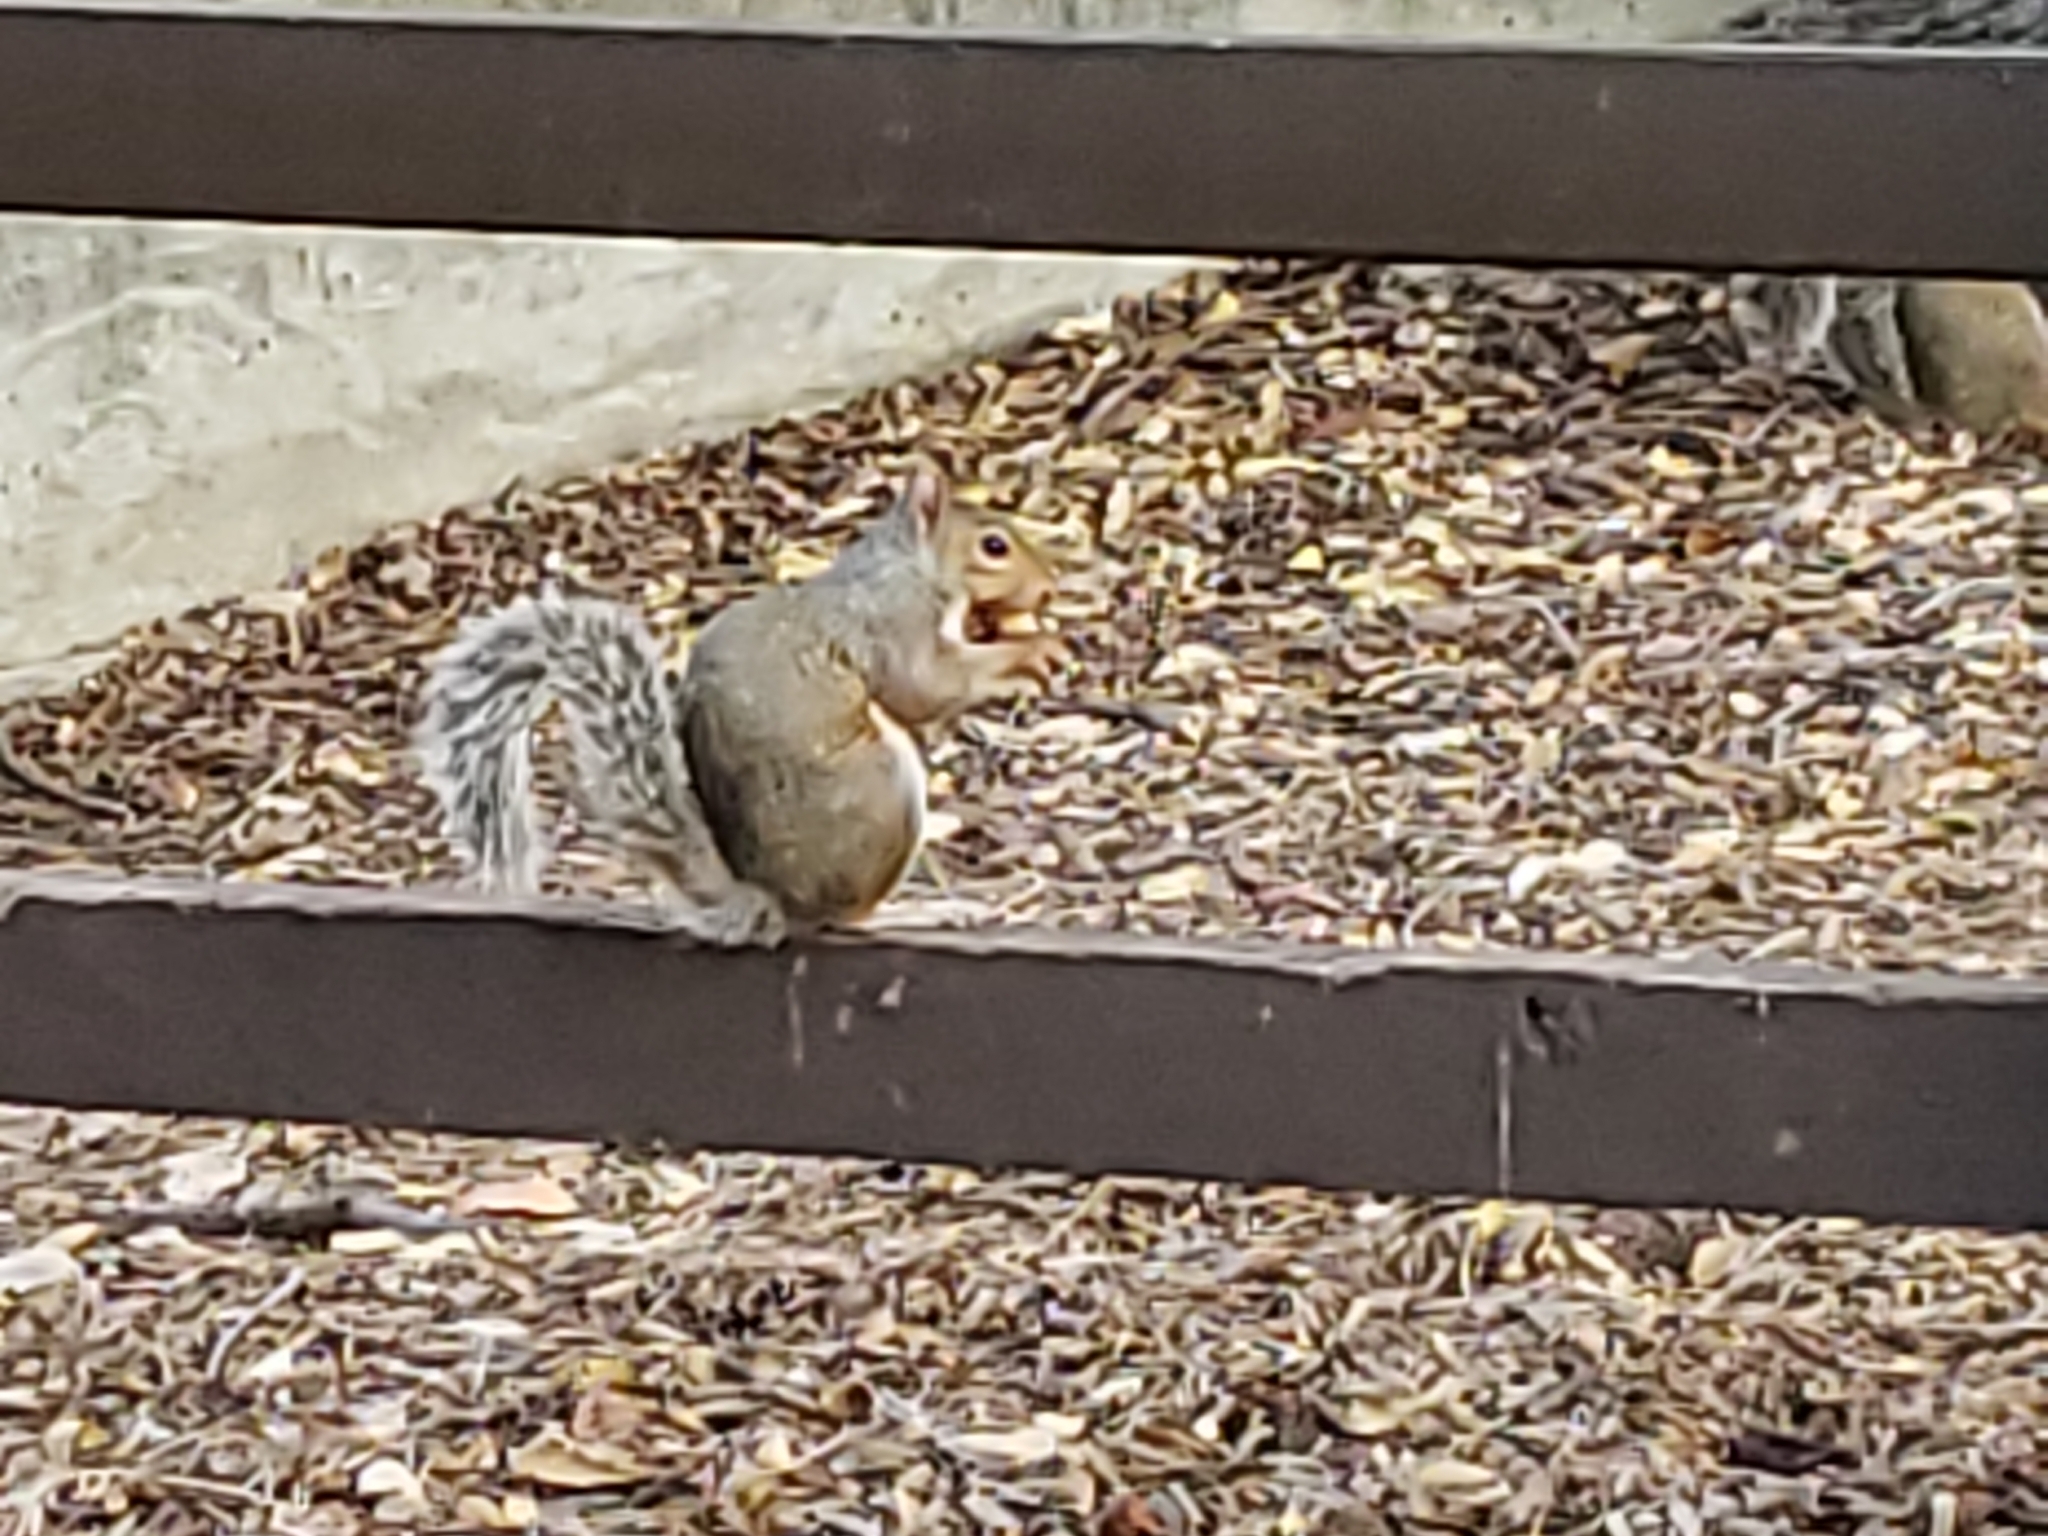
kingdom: Animalia
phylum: Chordata
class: Mammalia
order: Rodentia
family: Sciuridae
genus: Sciurus
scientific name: Sciurus carolinensis
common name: Eastern gray squirrel
